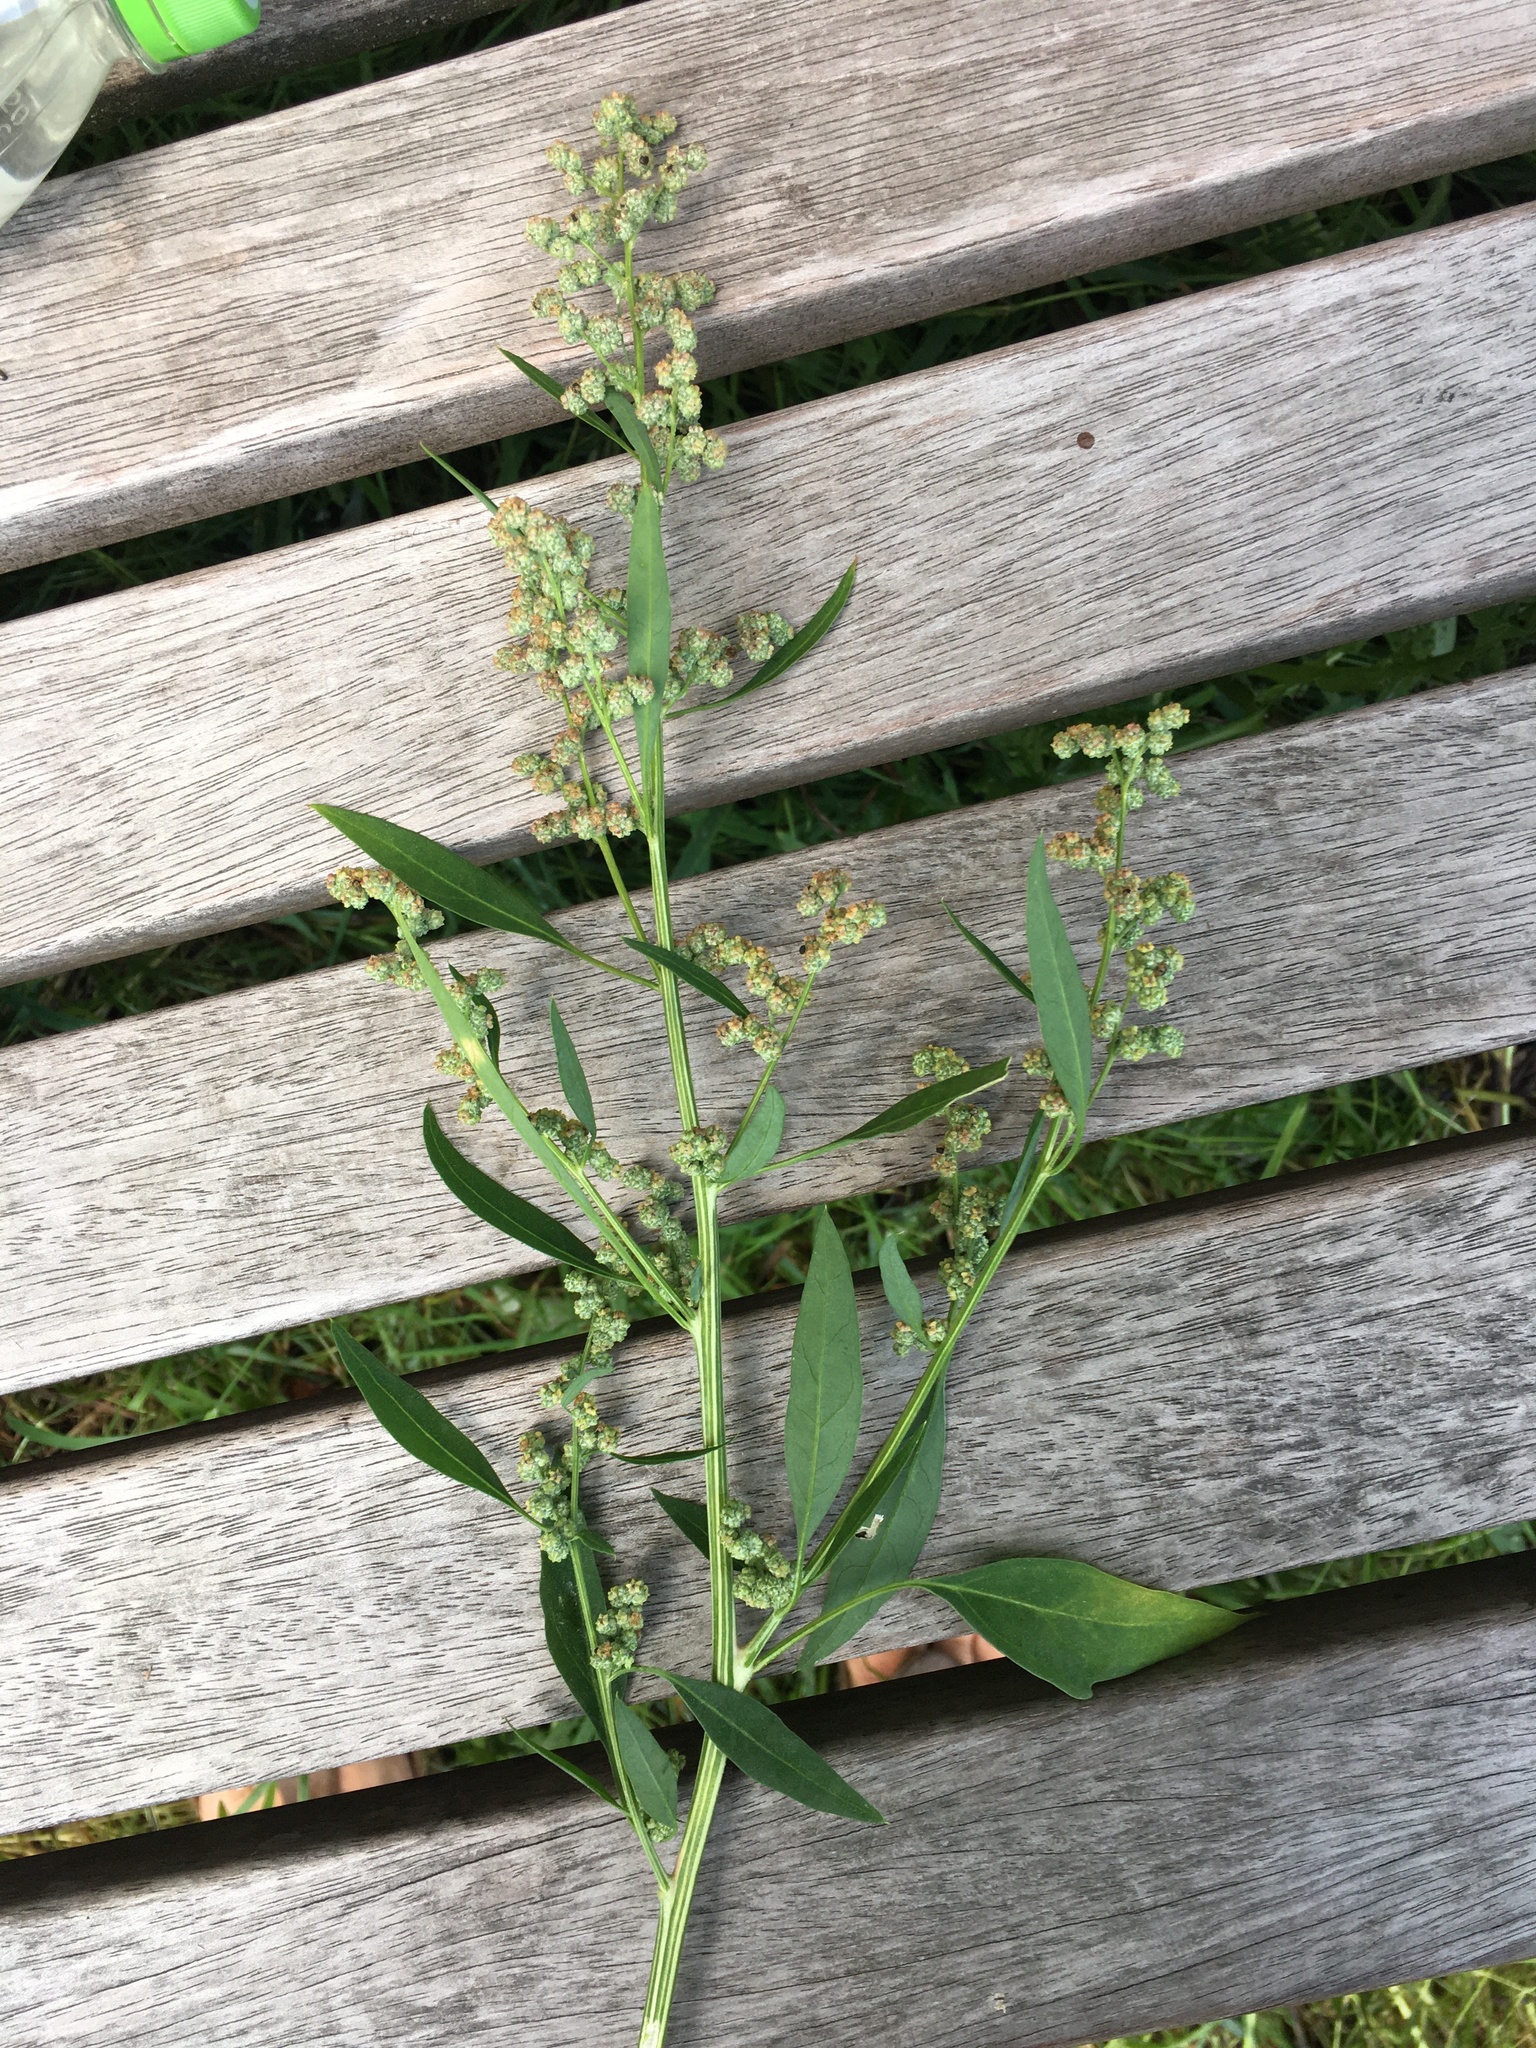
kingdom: Plantae
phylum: Tracheophyta
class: Magnoliopsida
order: Caryophyllales
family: Amaranthaceae
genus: Chenopodium
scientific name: Chenopodium album
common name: Fat-hen
